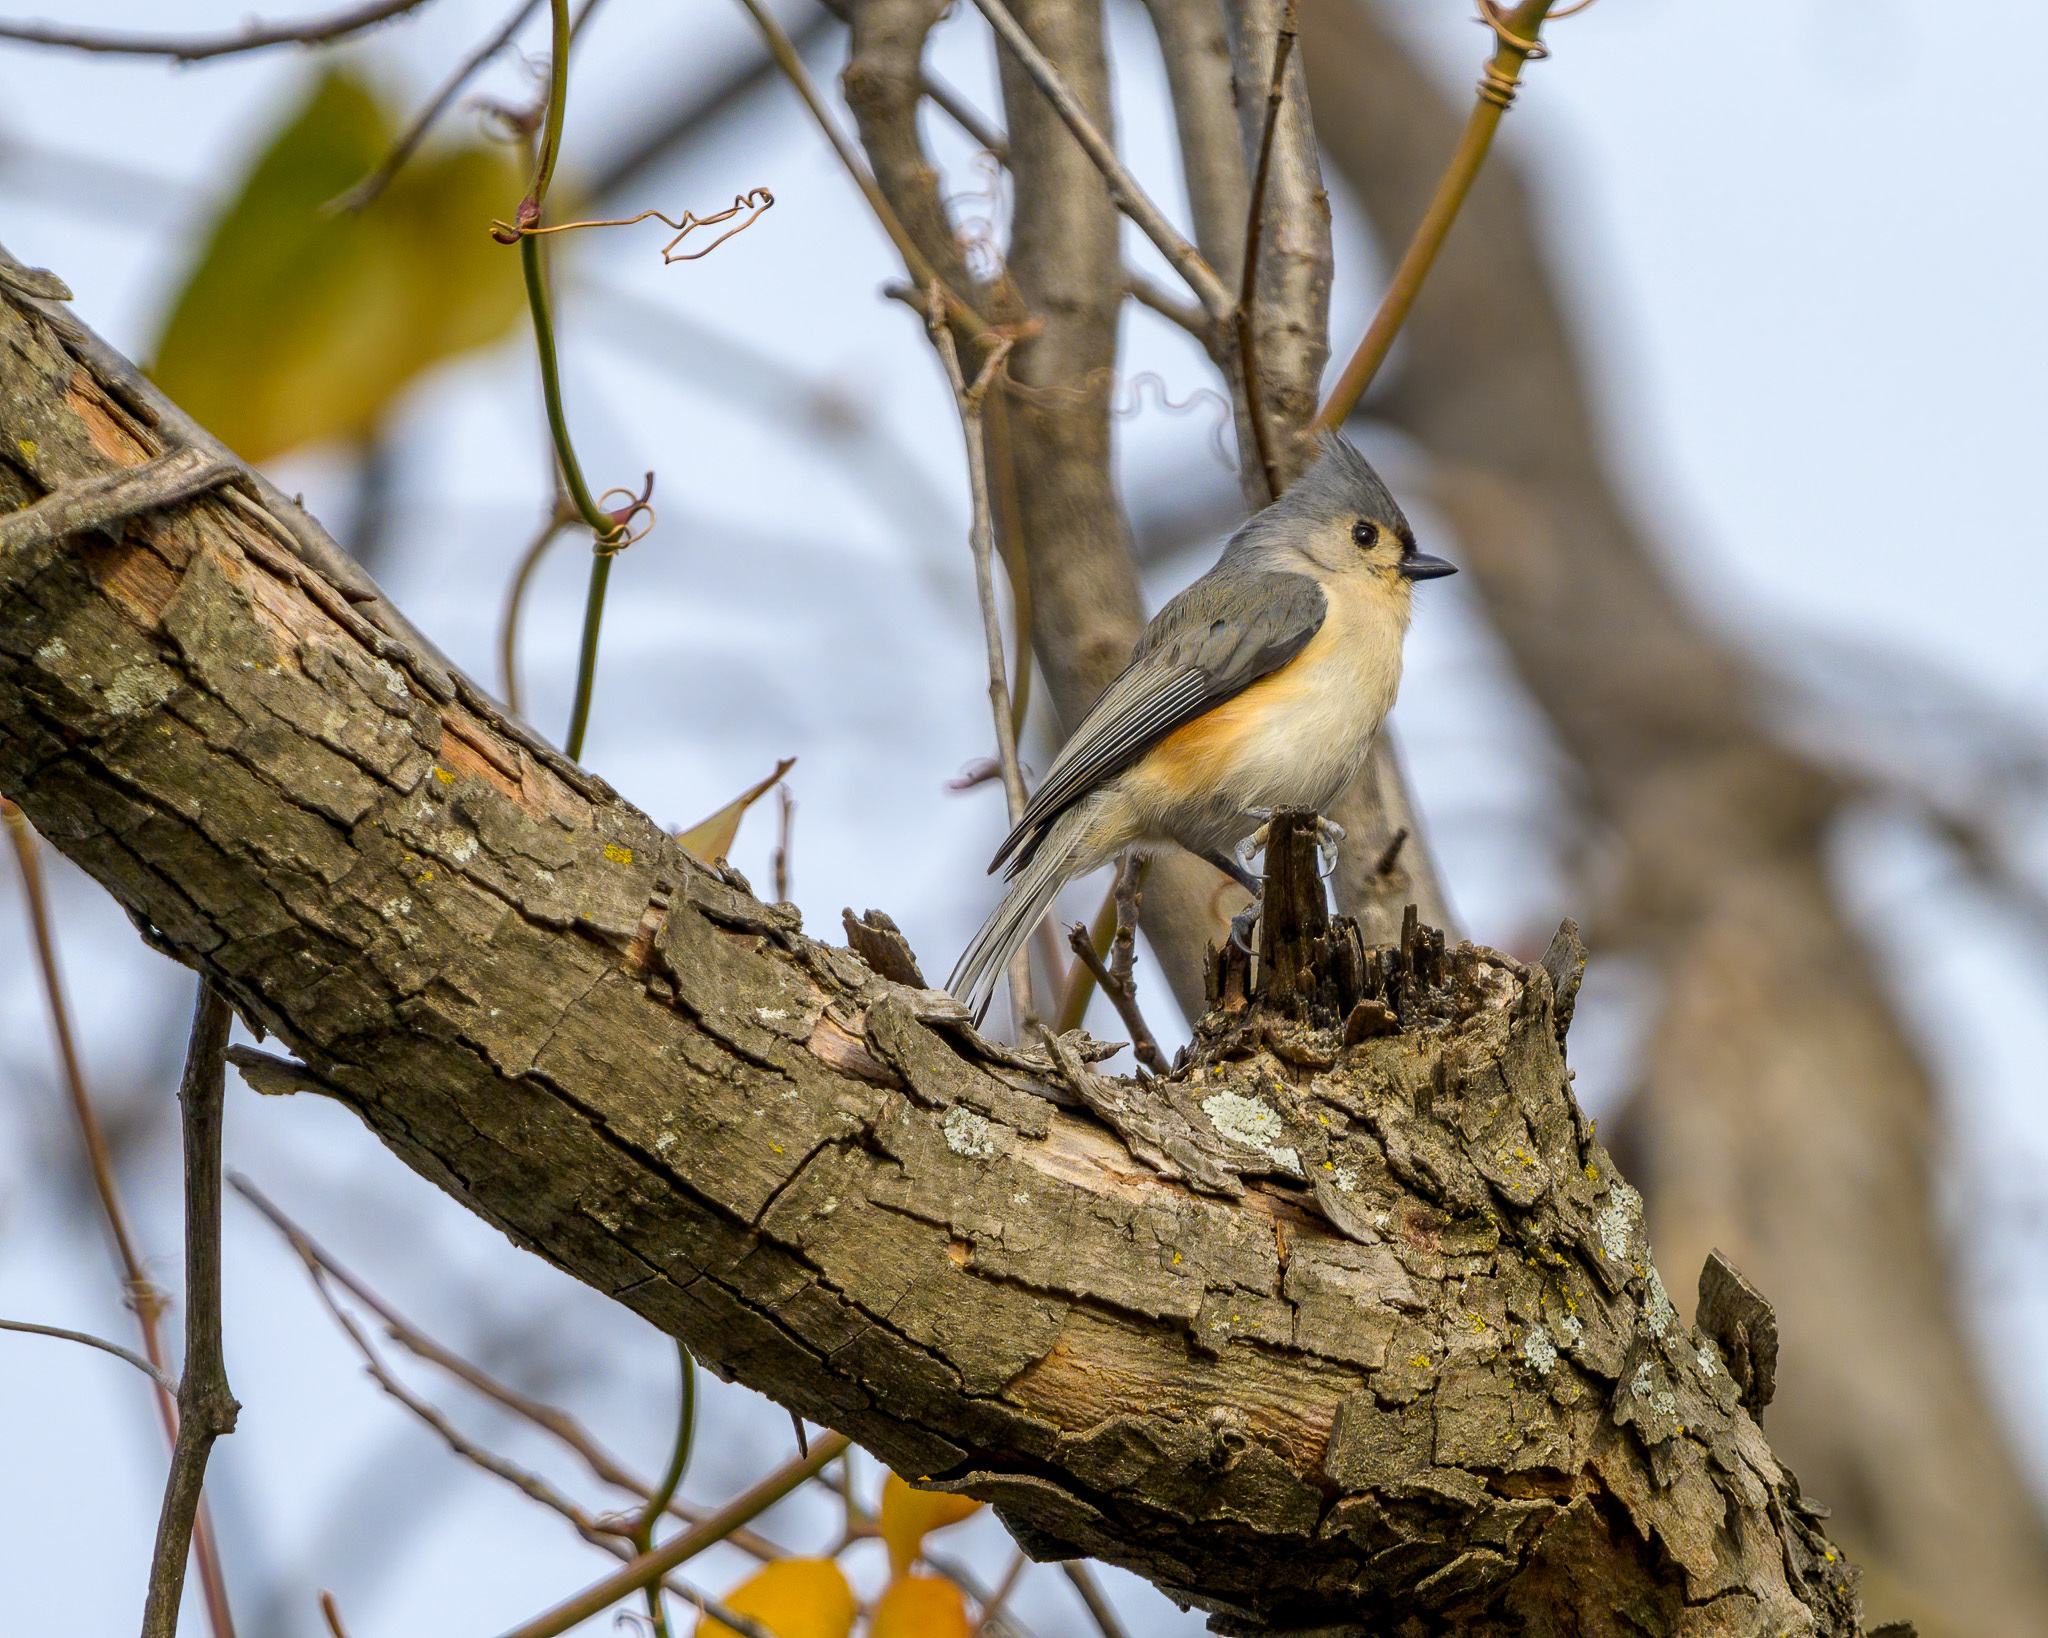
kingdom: Animalia
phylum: Chordata
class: Aves
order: Passeriformes
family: Paridae
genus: Baeolophus
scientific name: Baeolophus bicolor
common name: Tufted titmouse
